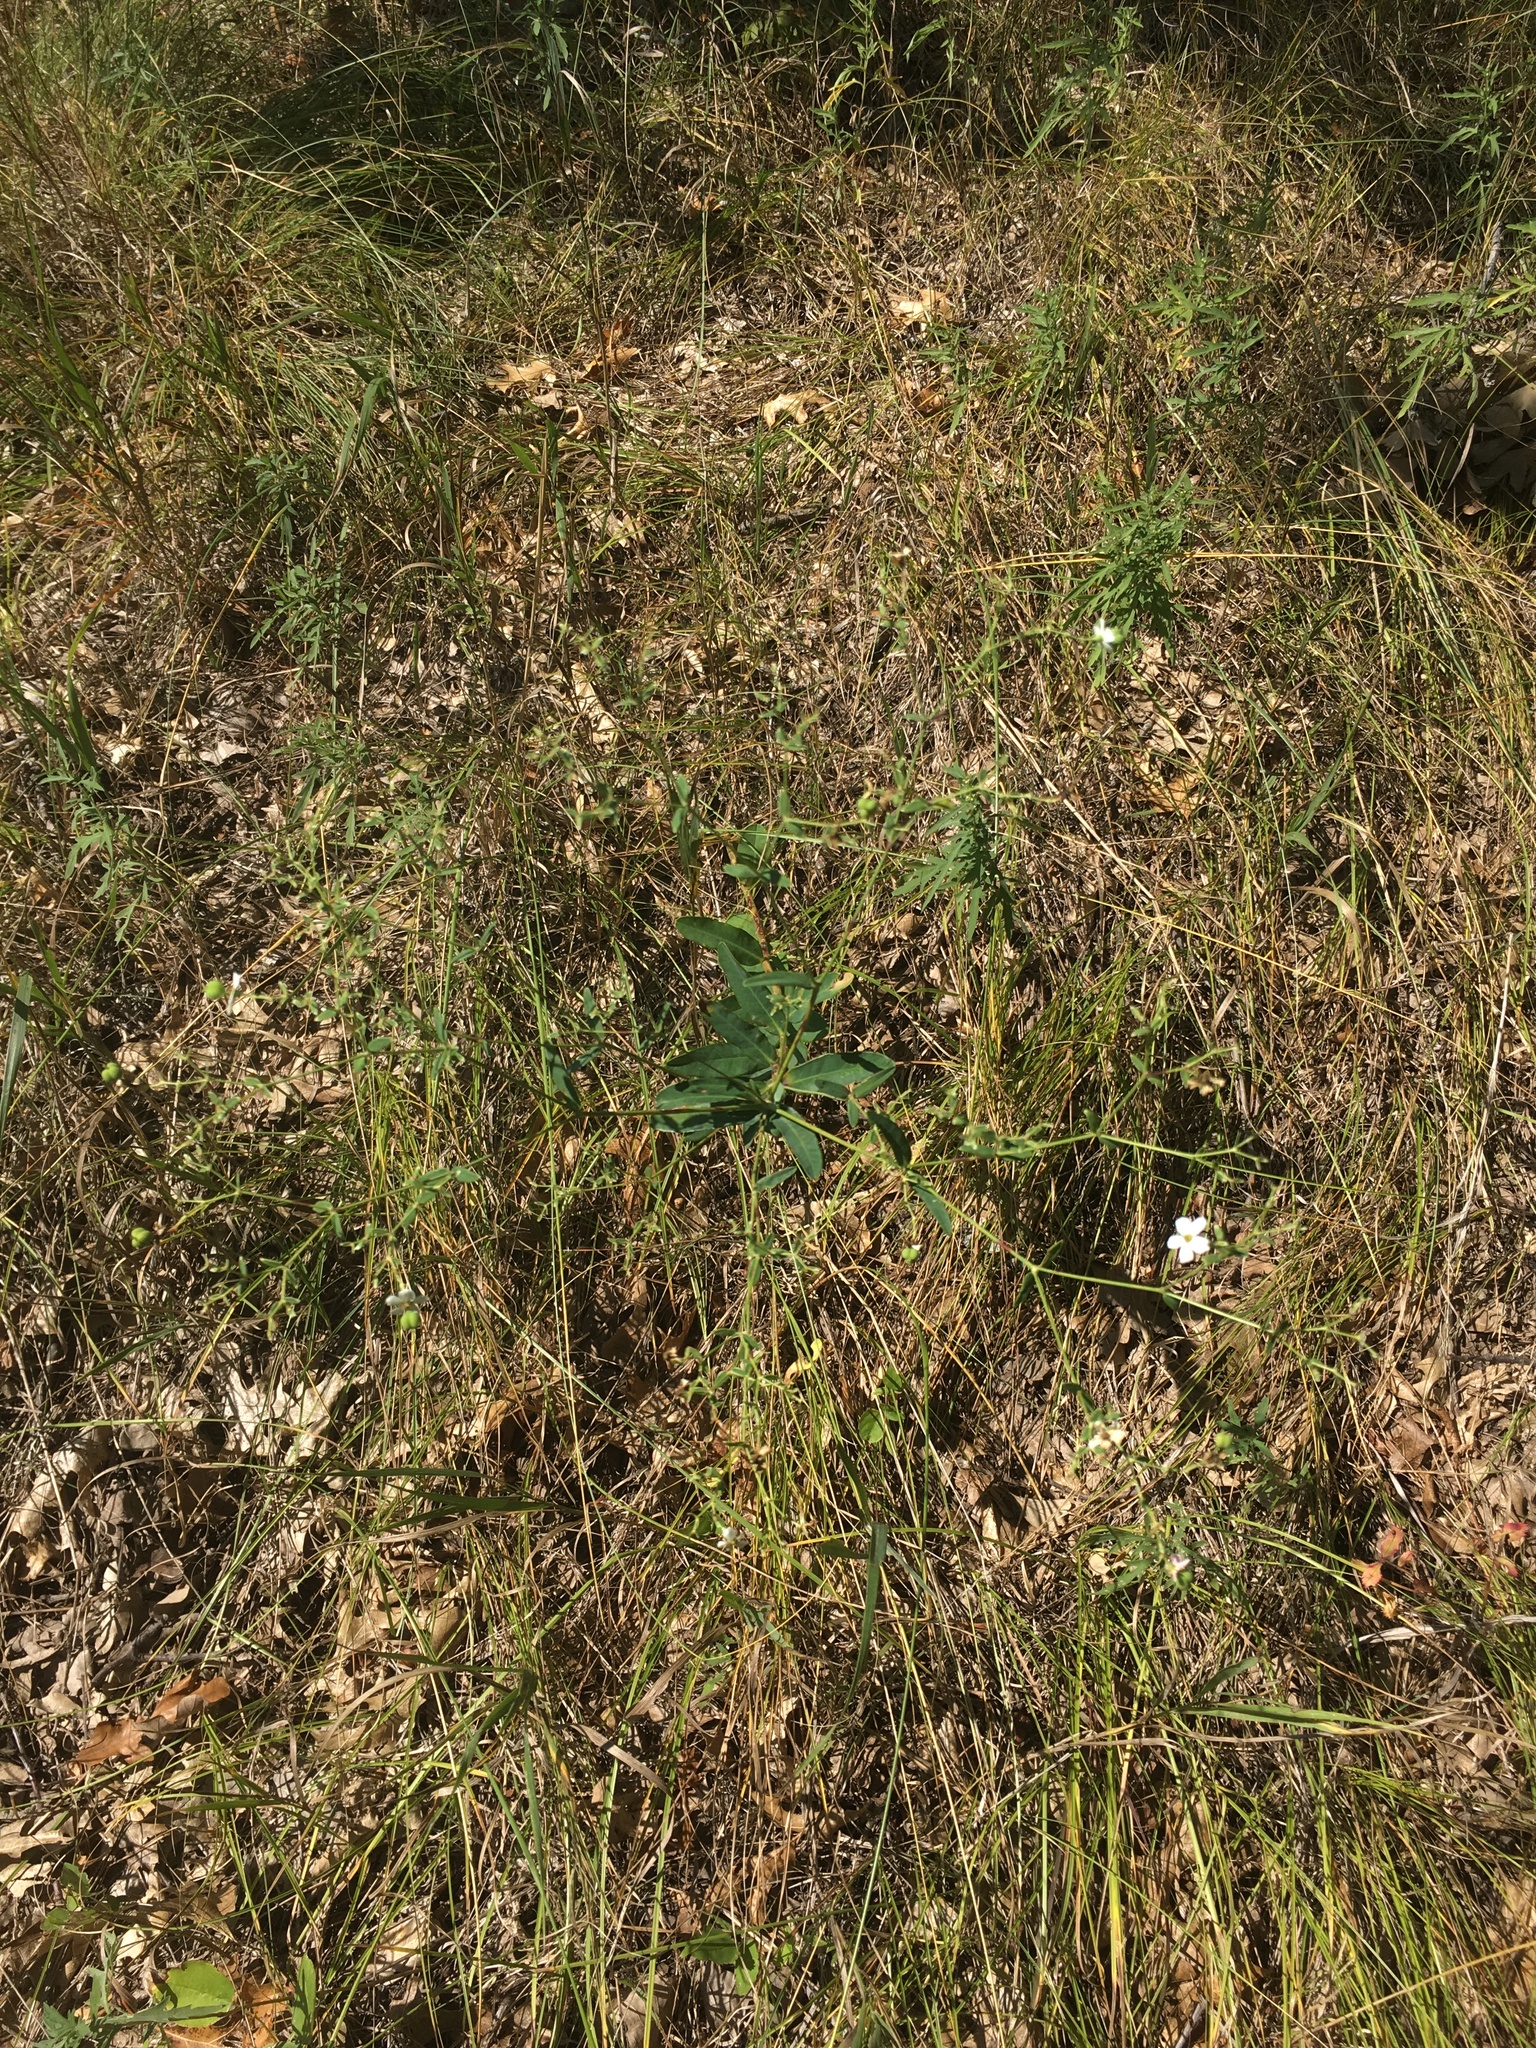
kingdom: Plantae
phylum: Tracheophyta
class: Magnoliopsida
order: Malpighiales
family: Euphorbiaceae
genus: Euphorbia
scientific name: Euphorbia corollata
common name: Flowering spurge
